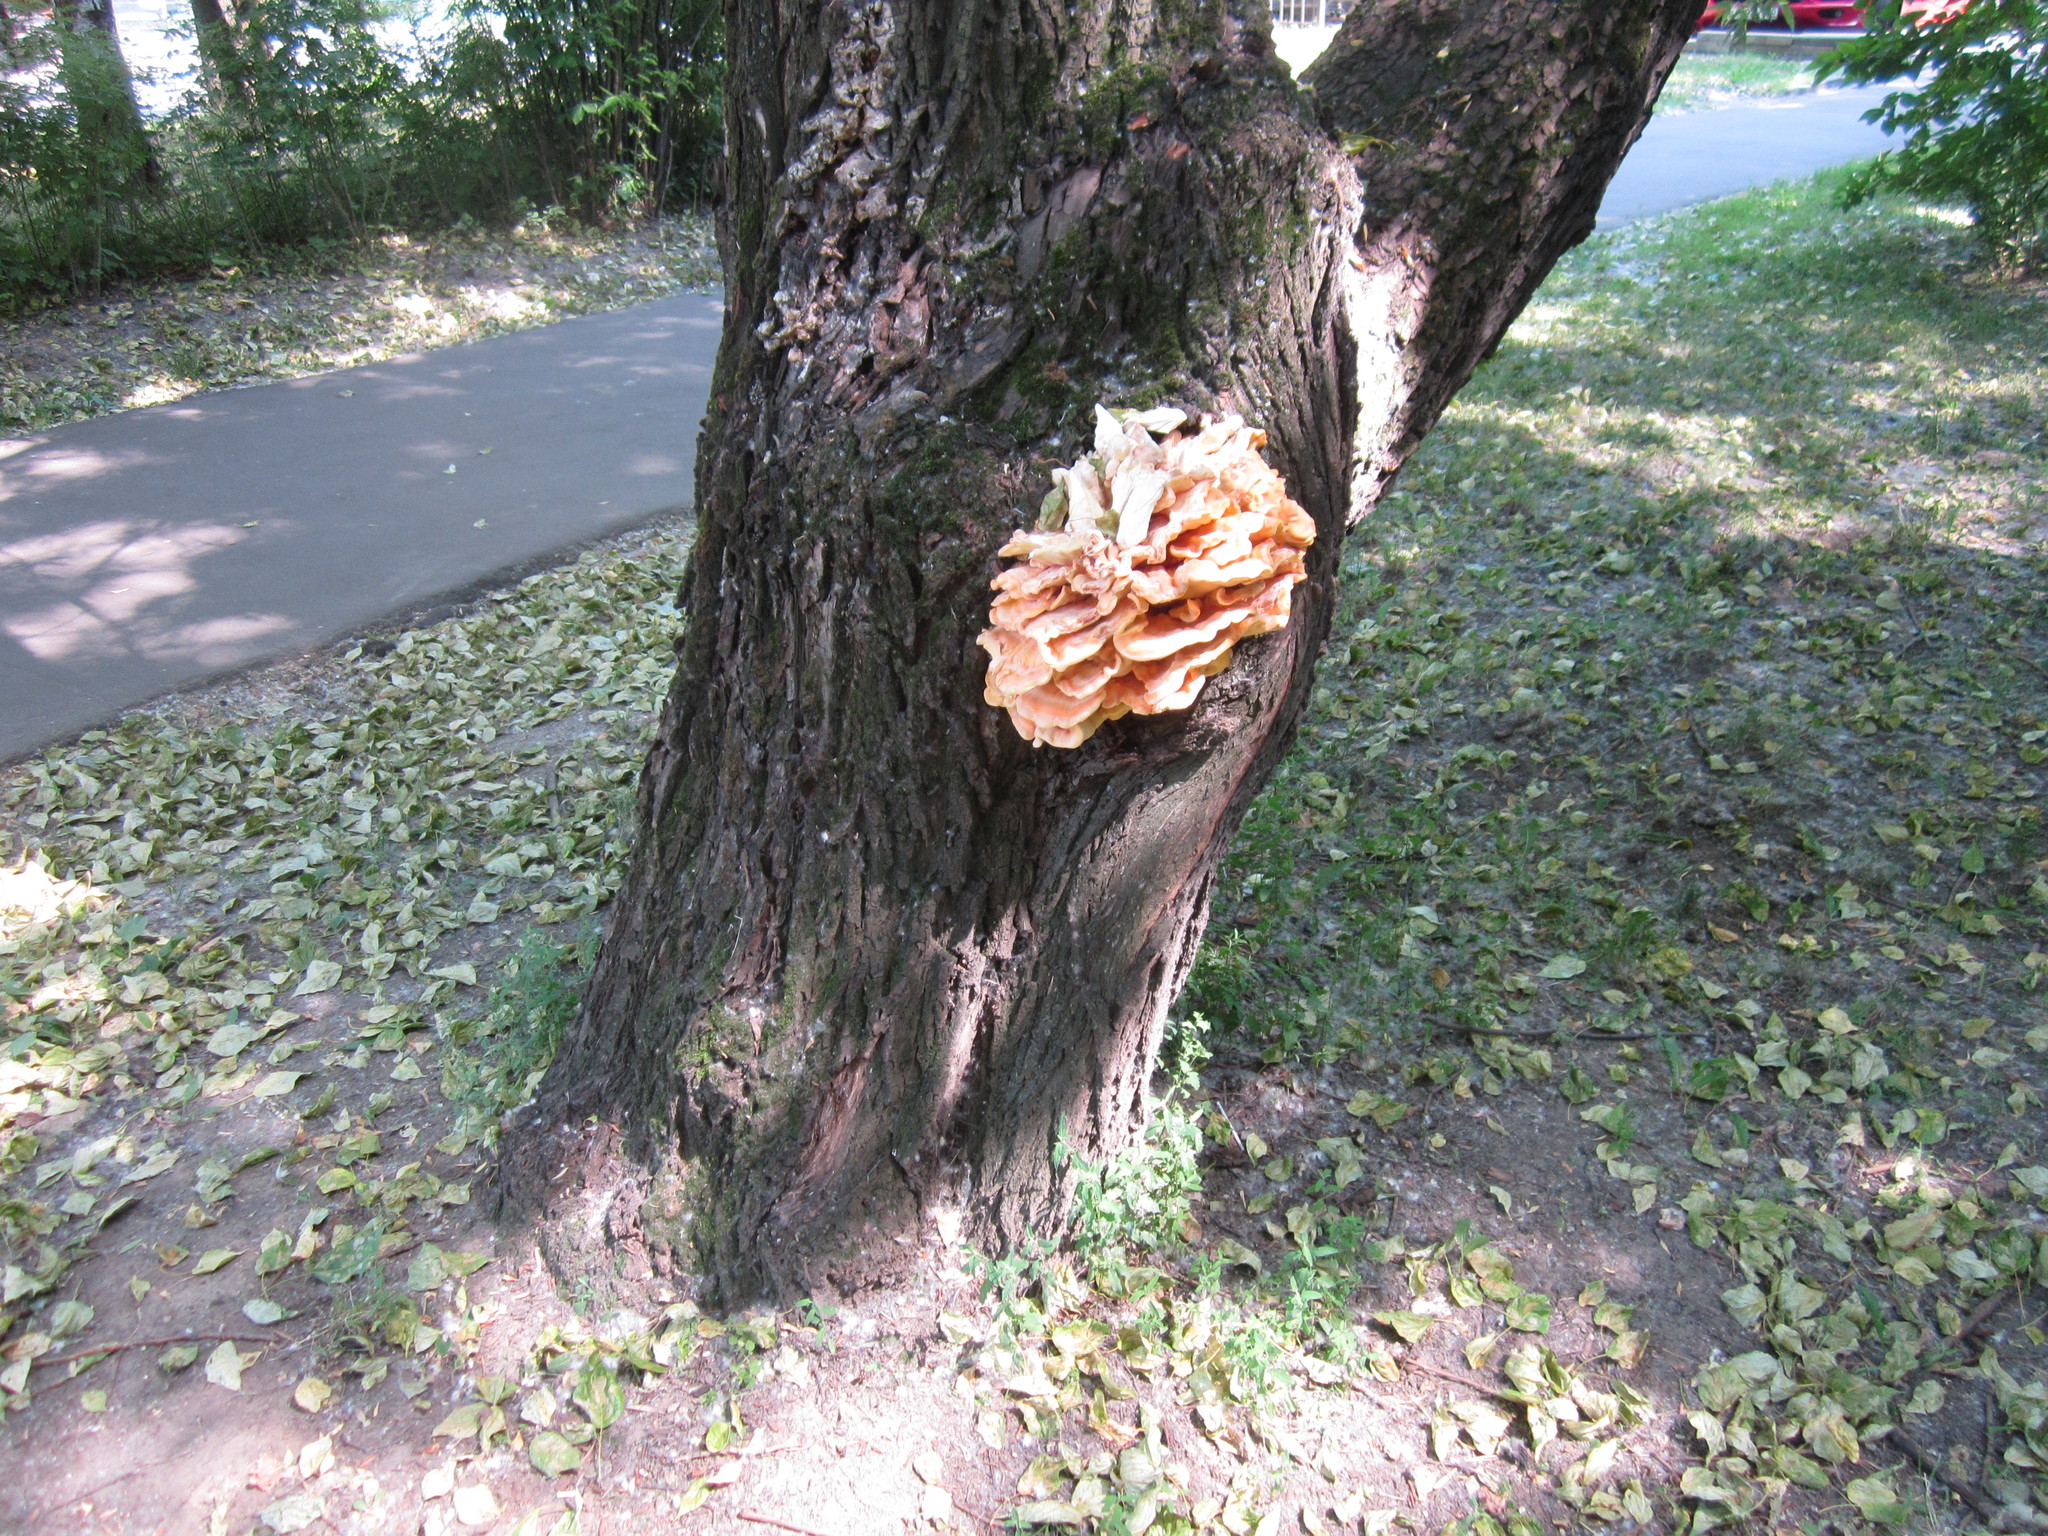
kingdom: Fungi
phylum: Basidiomycota
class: Agaricomycetes
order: Polyporales
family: Laetiporaceae
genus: Laetiporus
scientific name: Laetiporus sulphureus
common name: Chicken of the woods
